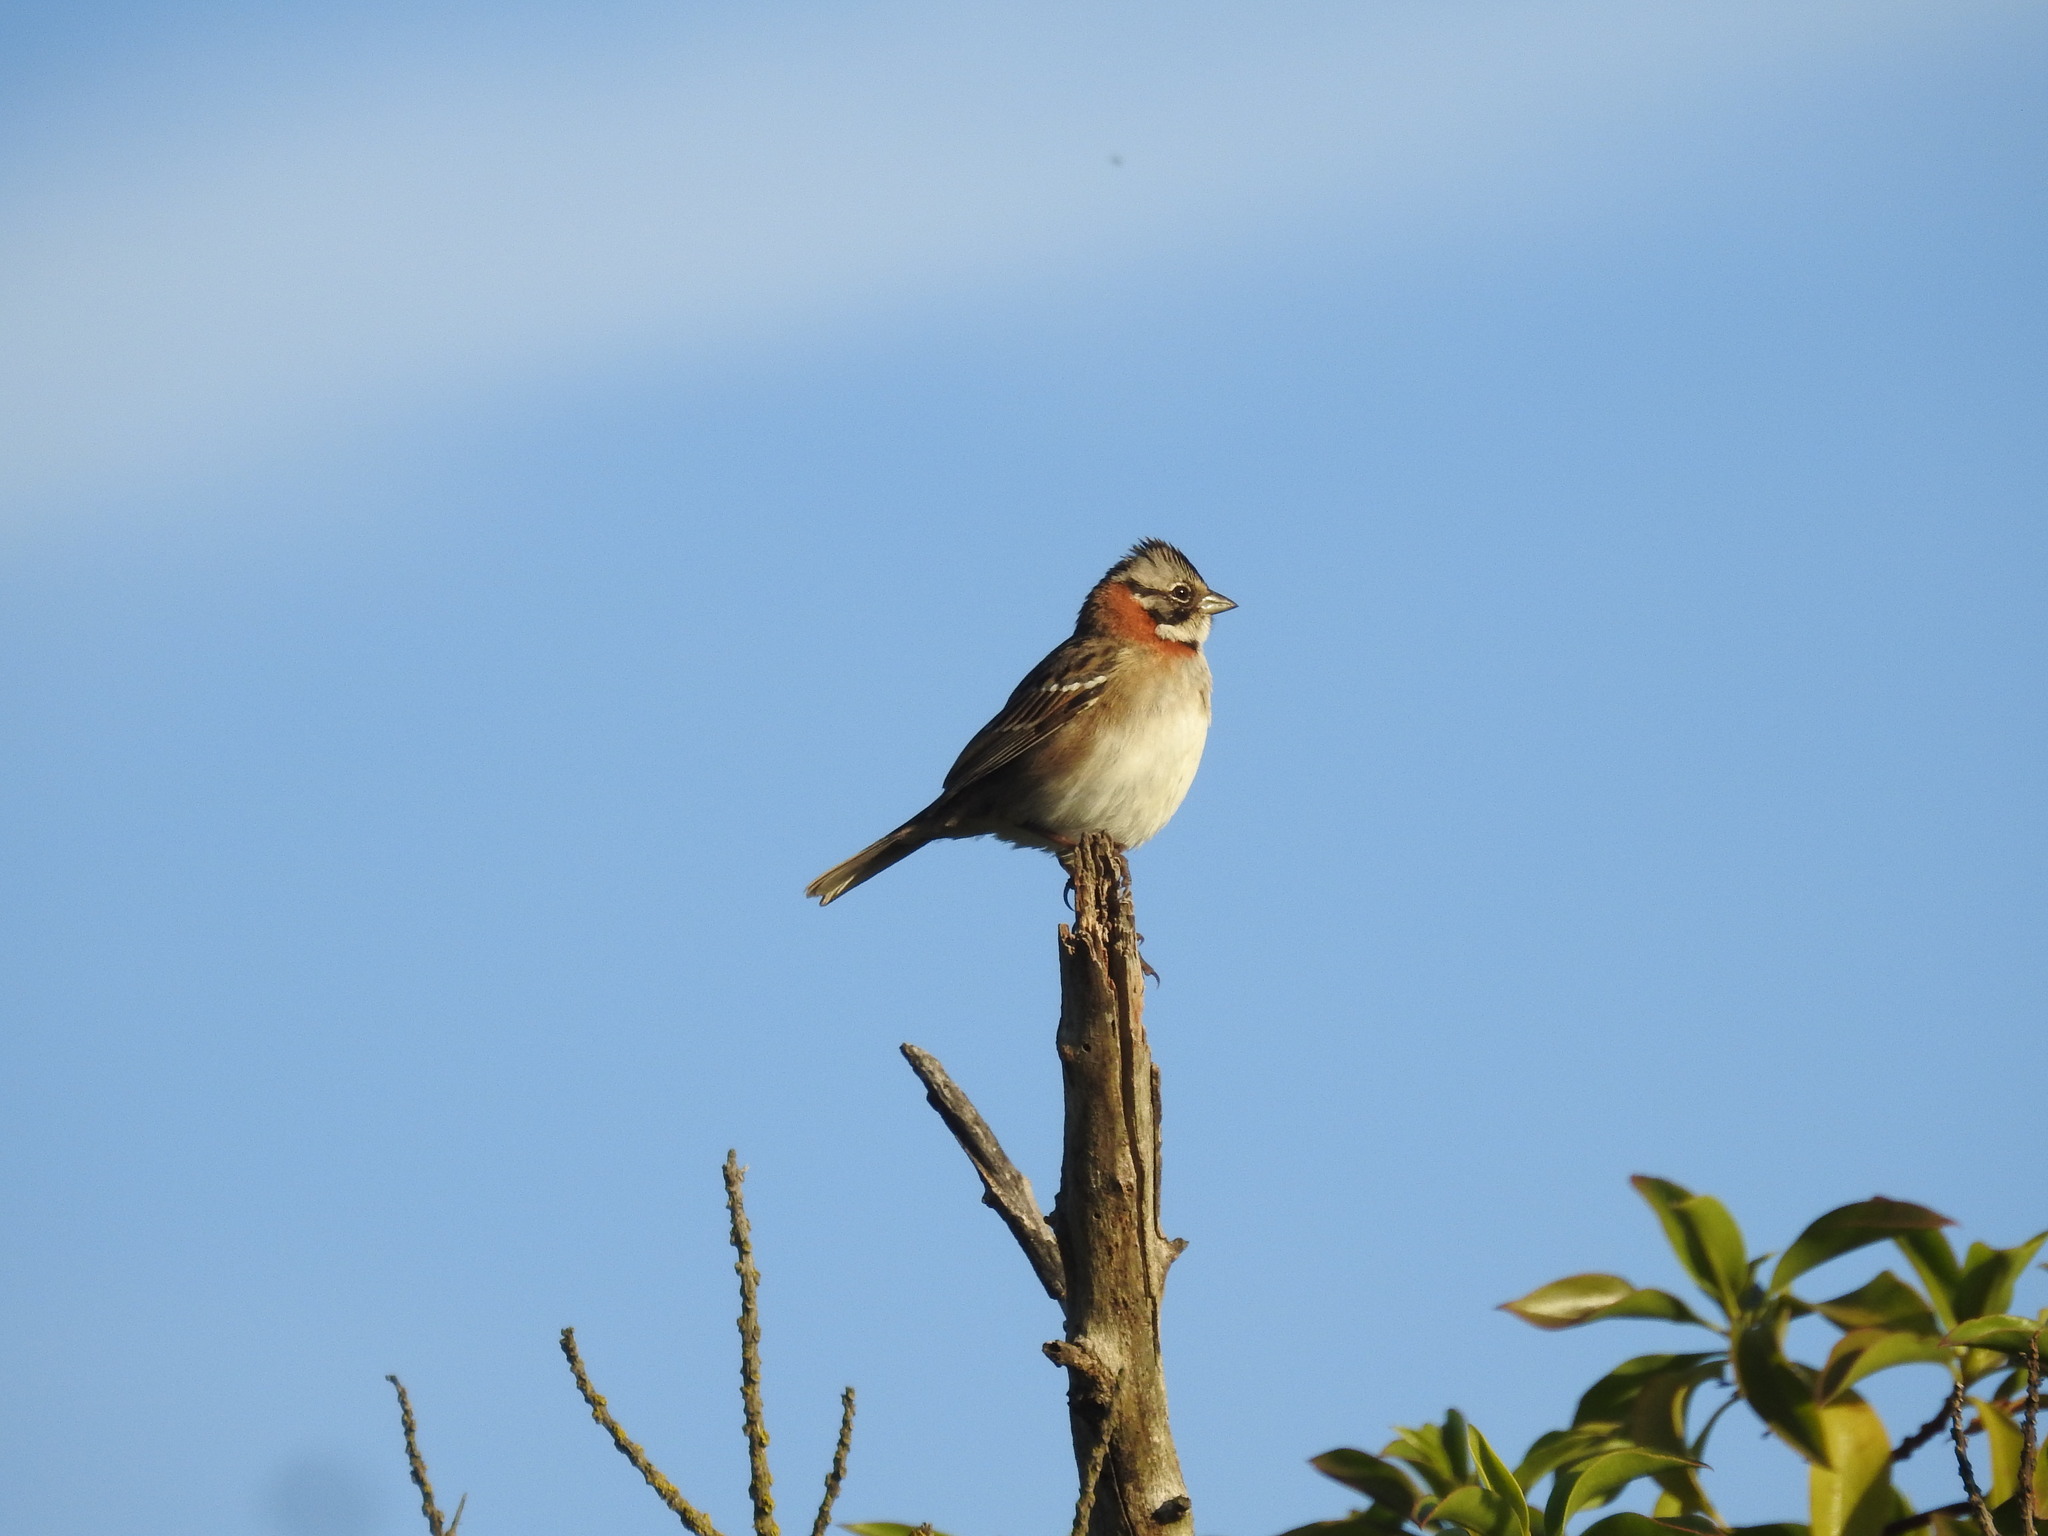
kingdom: Animalia
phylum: Chordata
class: Aves
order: Passeriformes
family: Passerellidae
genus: Zonotrichia
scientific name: Zonotrichia capensis
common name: Rufous-collared sparrow
